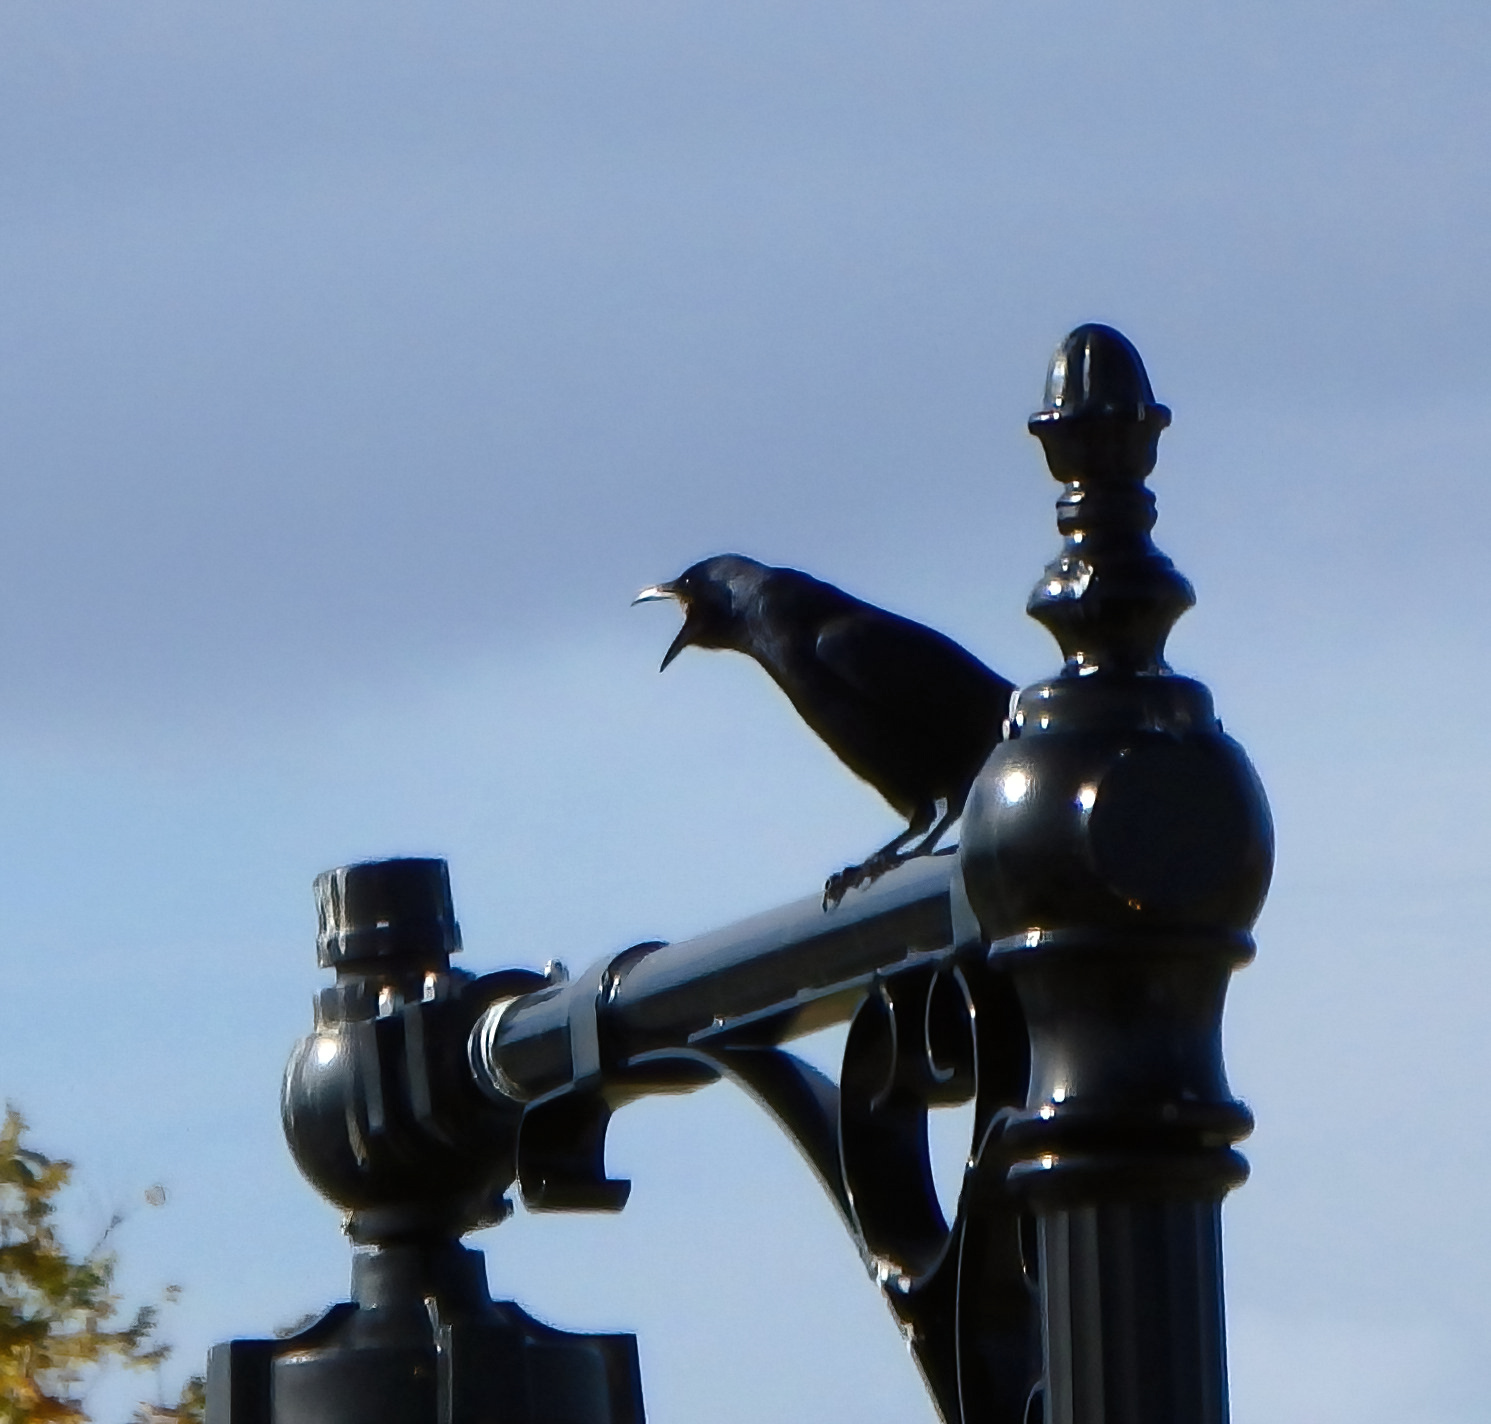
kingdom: Animalia
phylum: Chordata
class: Aves
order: Passeriformes
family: Corvidae
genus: Corvus
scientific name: Corvus ossifragus
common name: Fish crow
